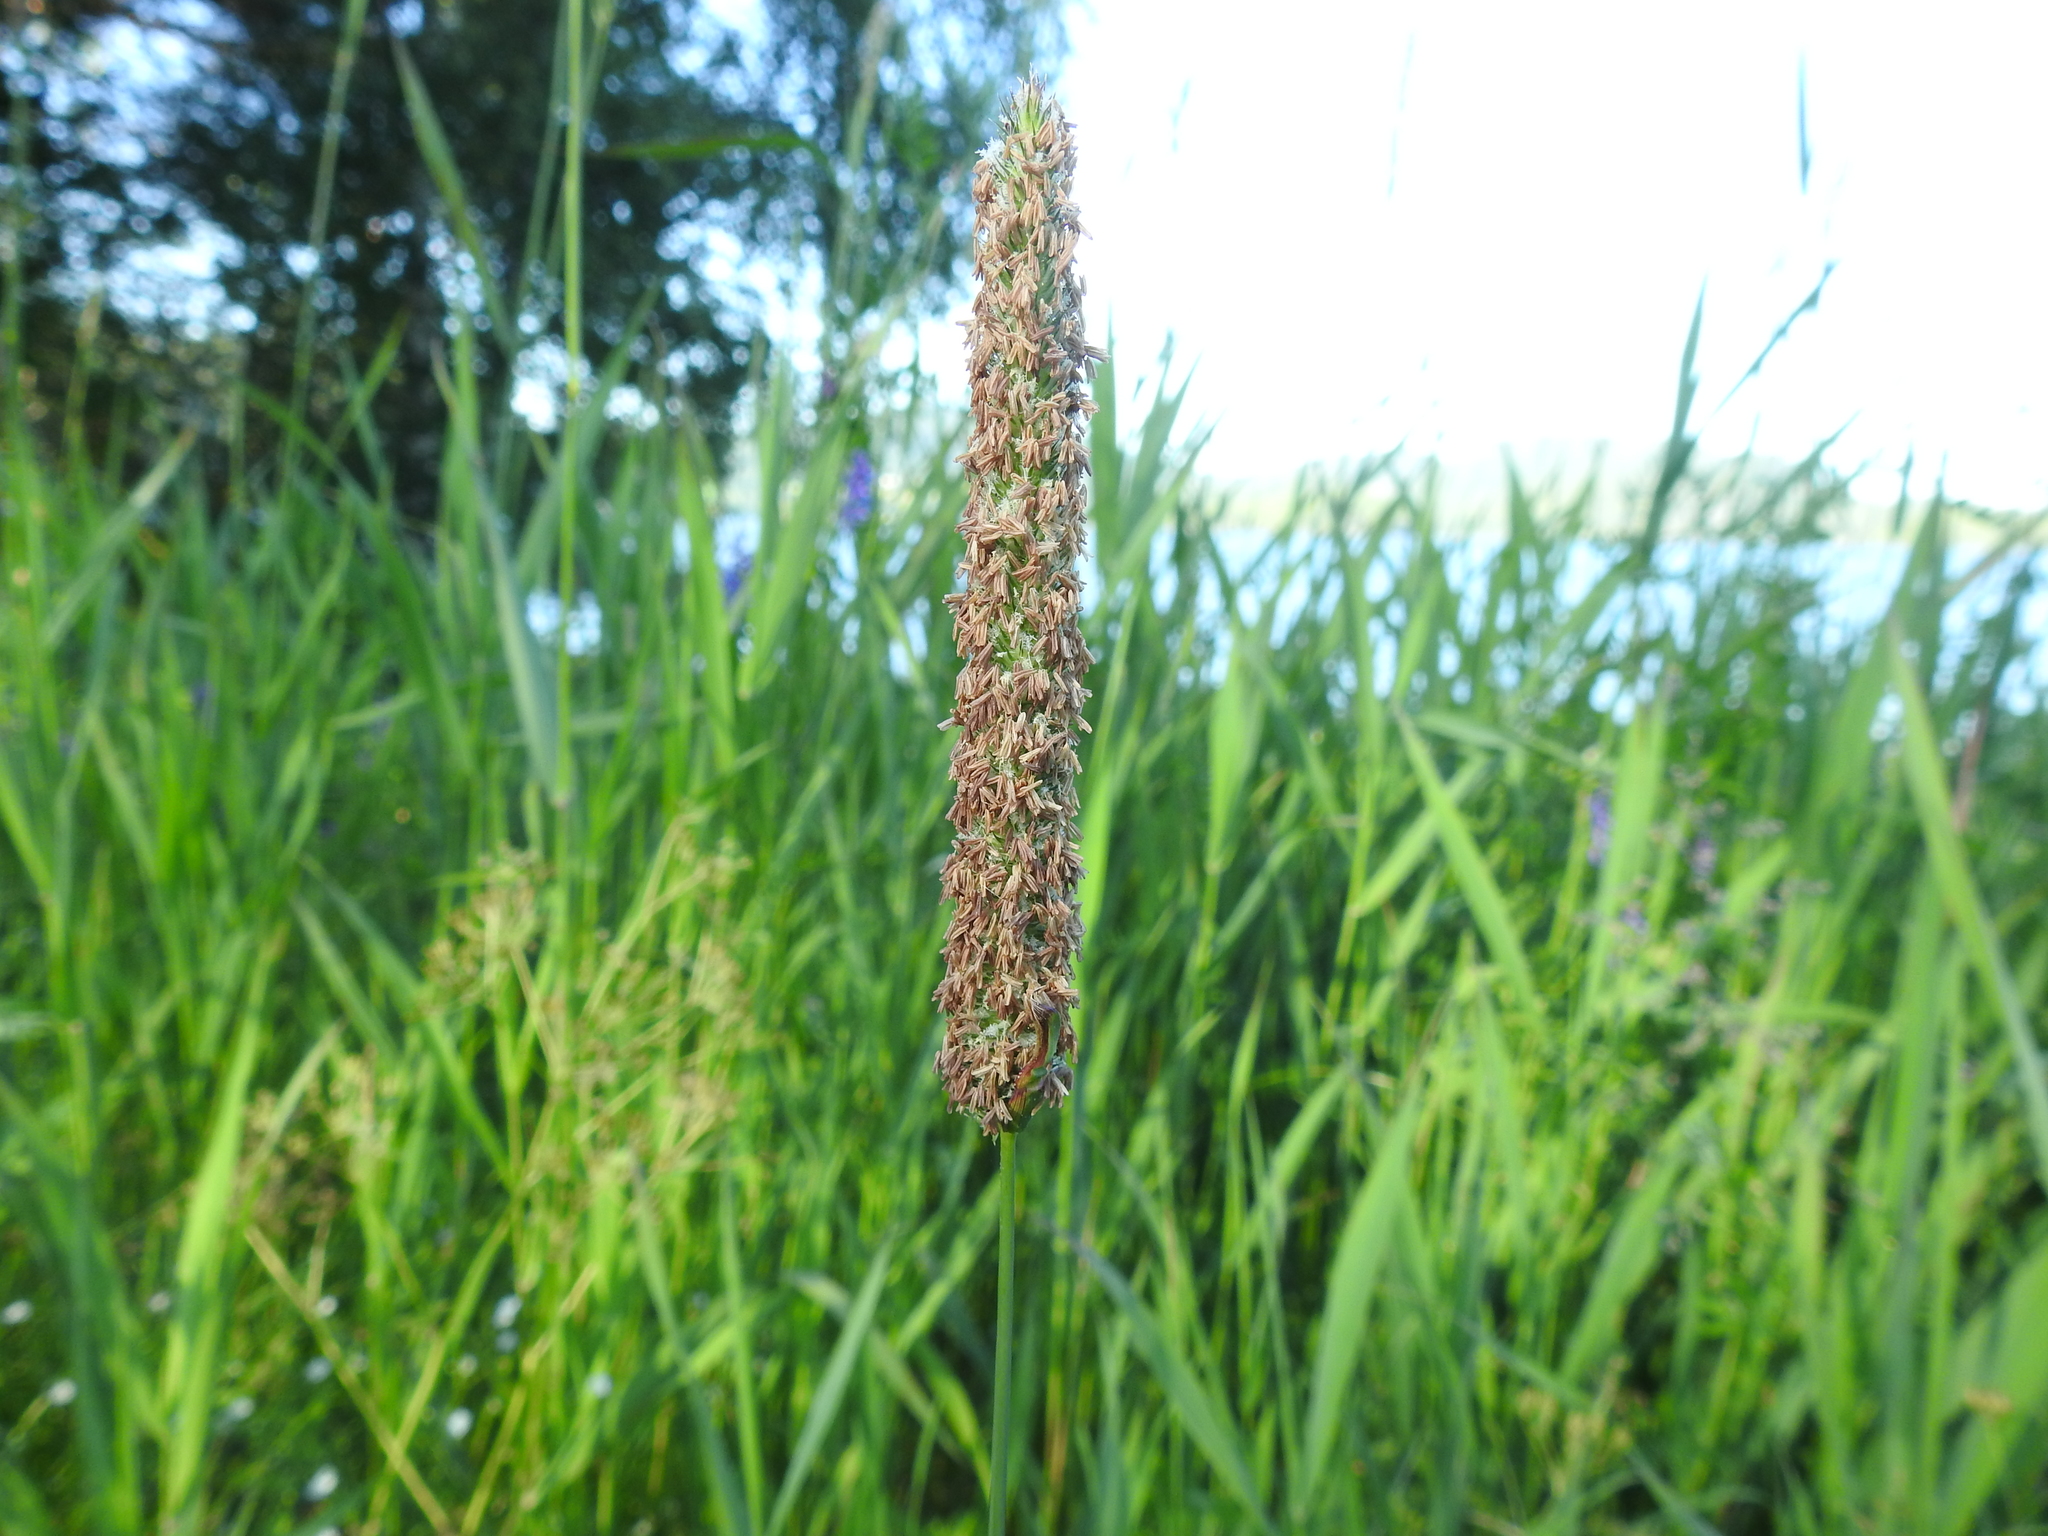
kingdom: Plantae
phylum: Tracheophyta
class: Liliopsida
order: Poales
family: Poaceae
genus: Phleum
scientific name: Phleum pratense
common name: Timothy grass
